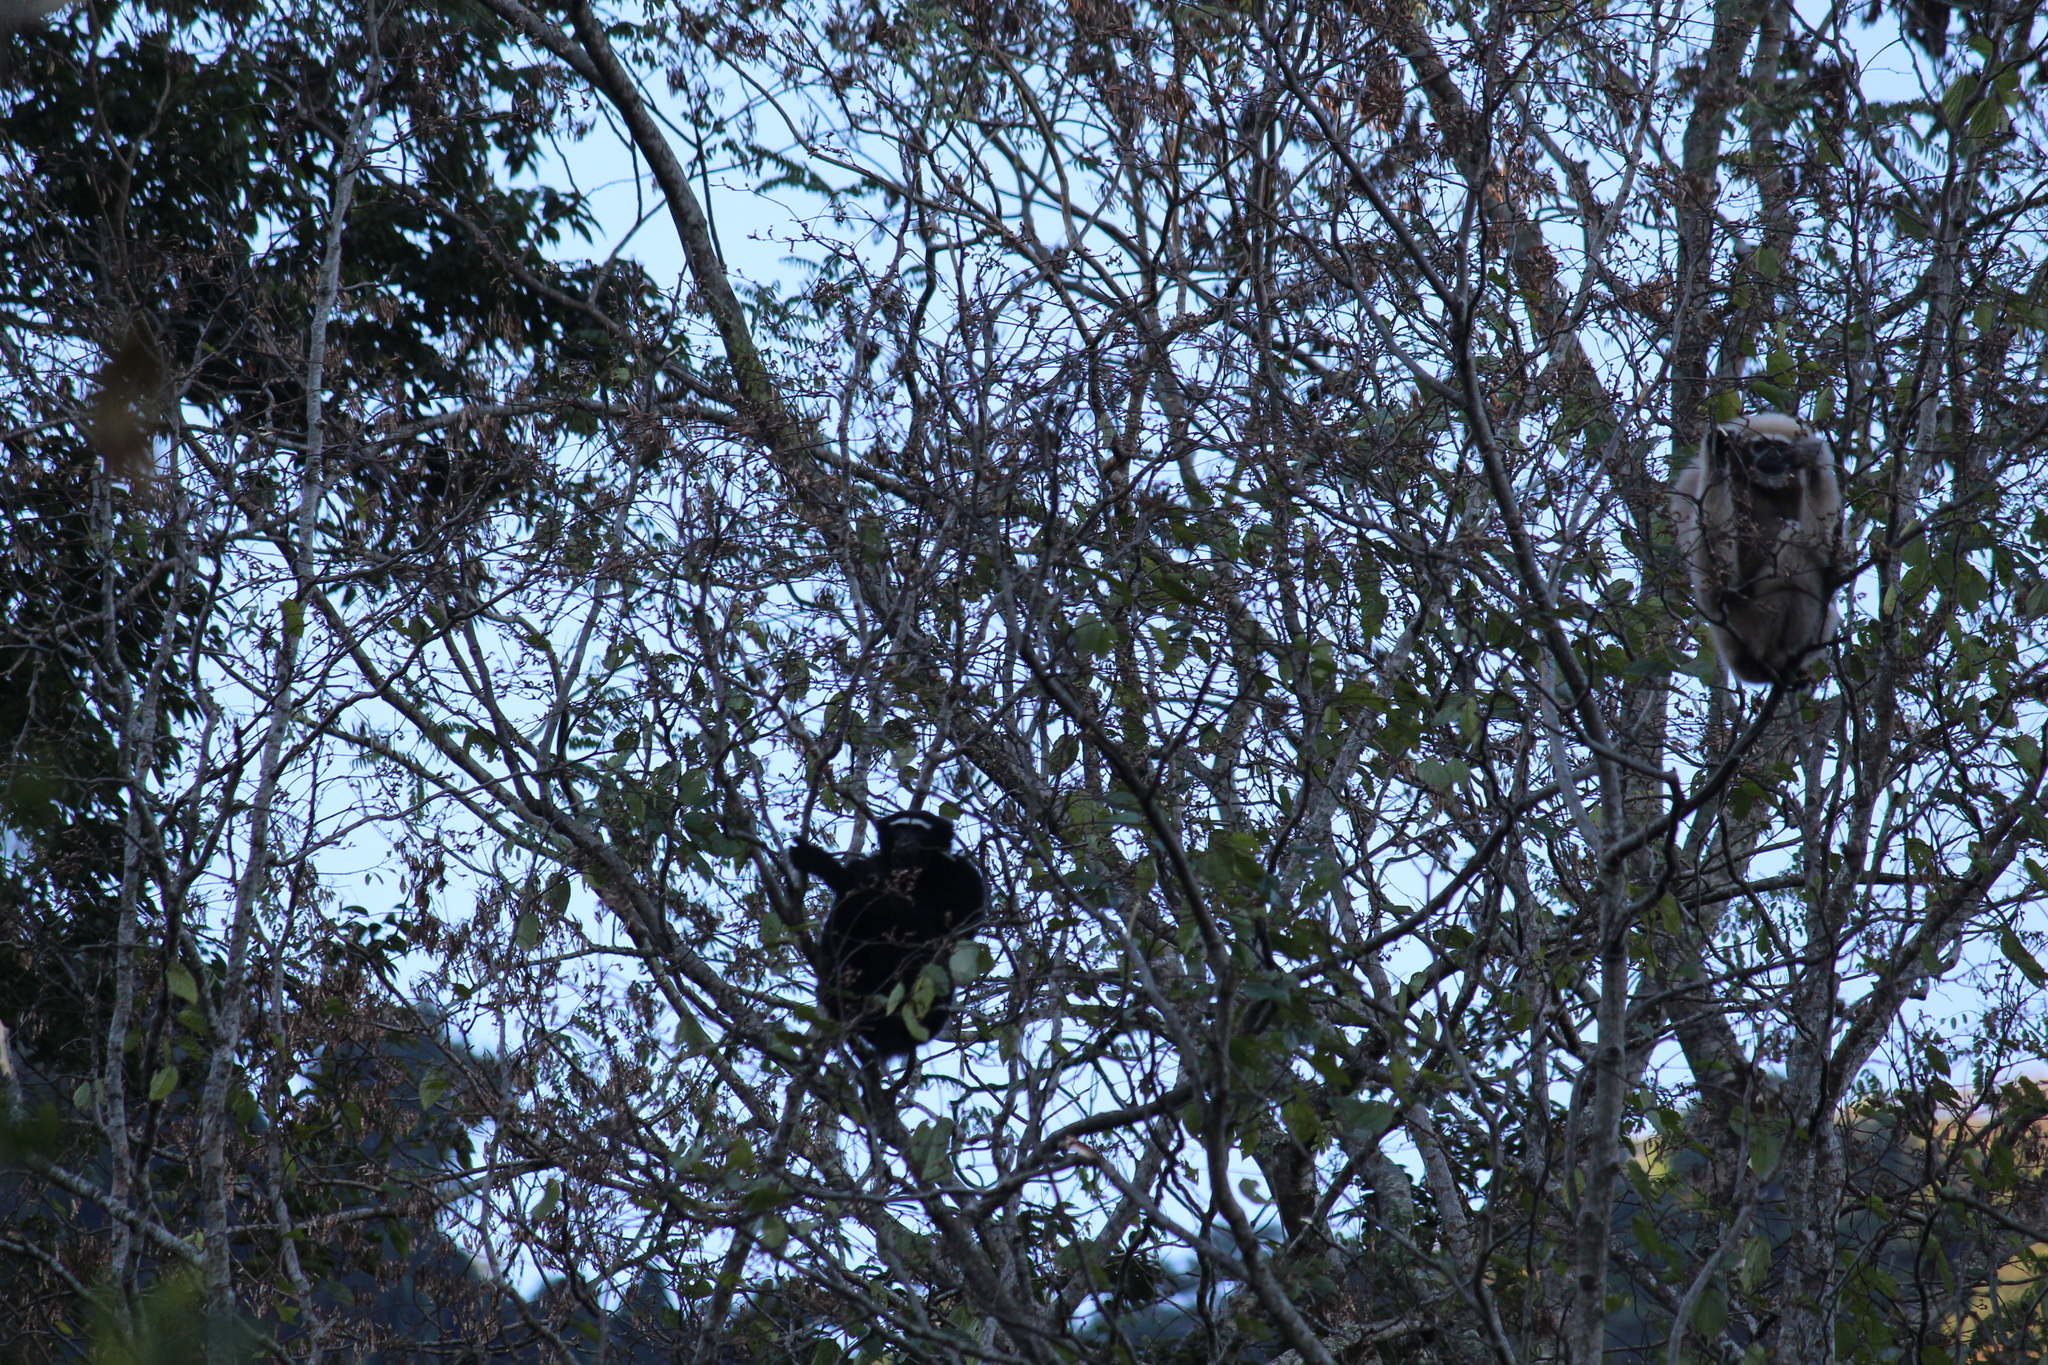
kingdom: Animalia
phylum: Chordata
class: Mammalia
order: Primates
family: Hylobatidae
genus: Hoolock
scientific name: Hoolock hoolock
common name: Western hoolock gibbon
